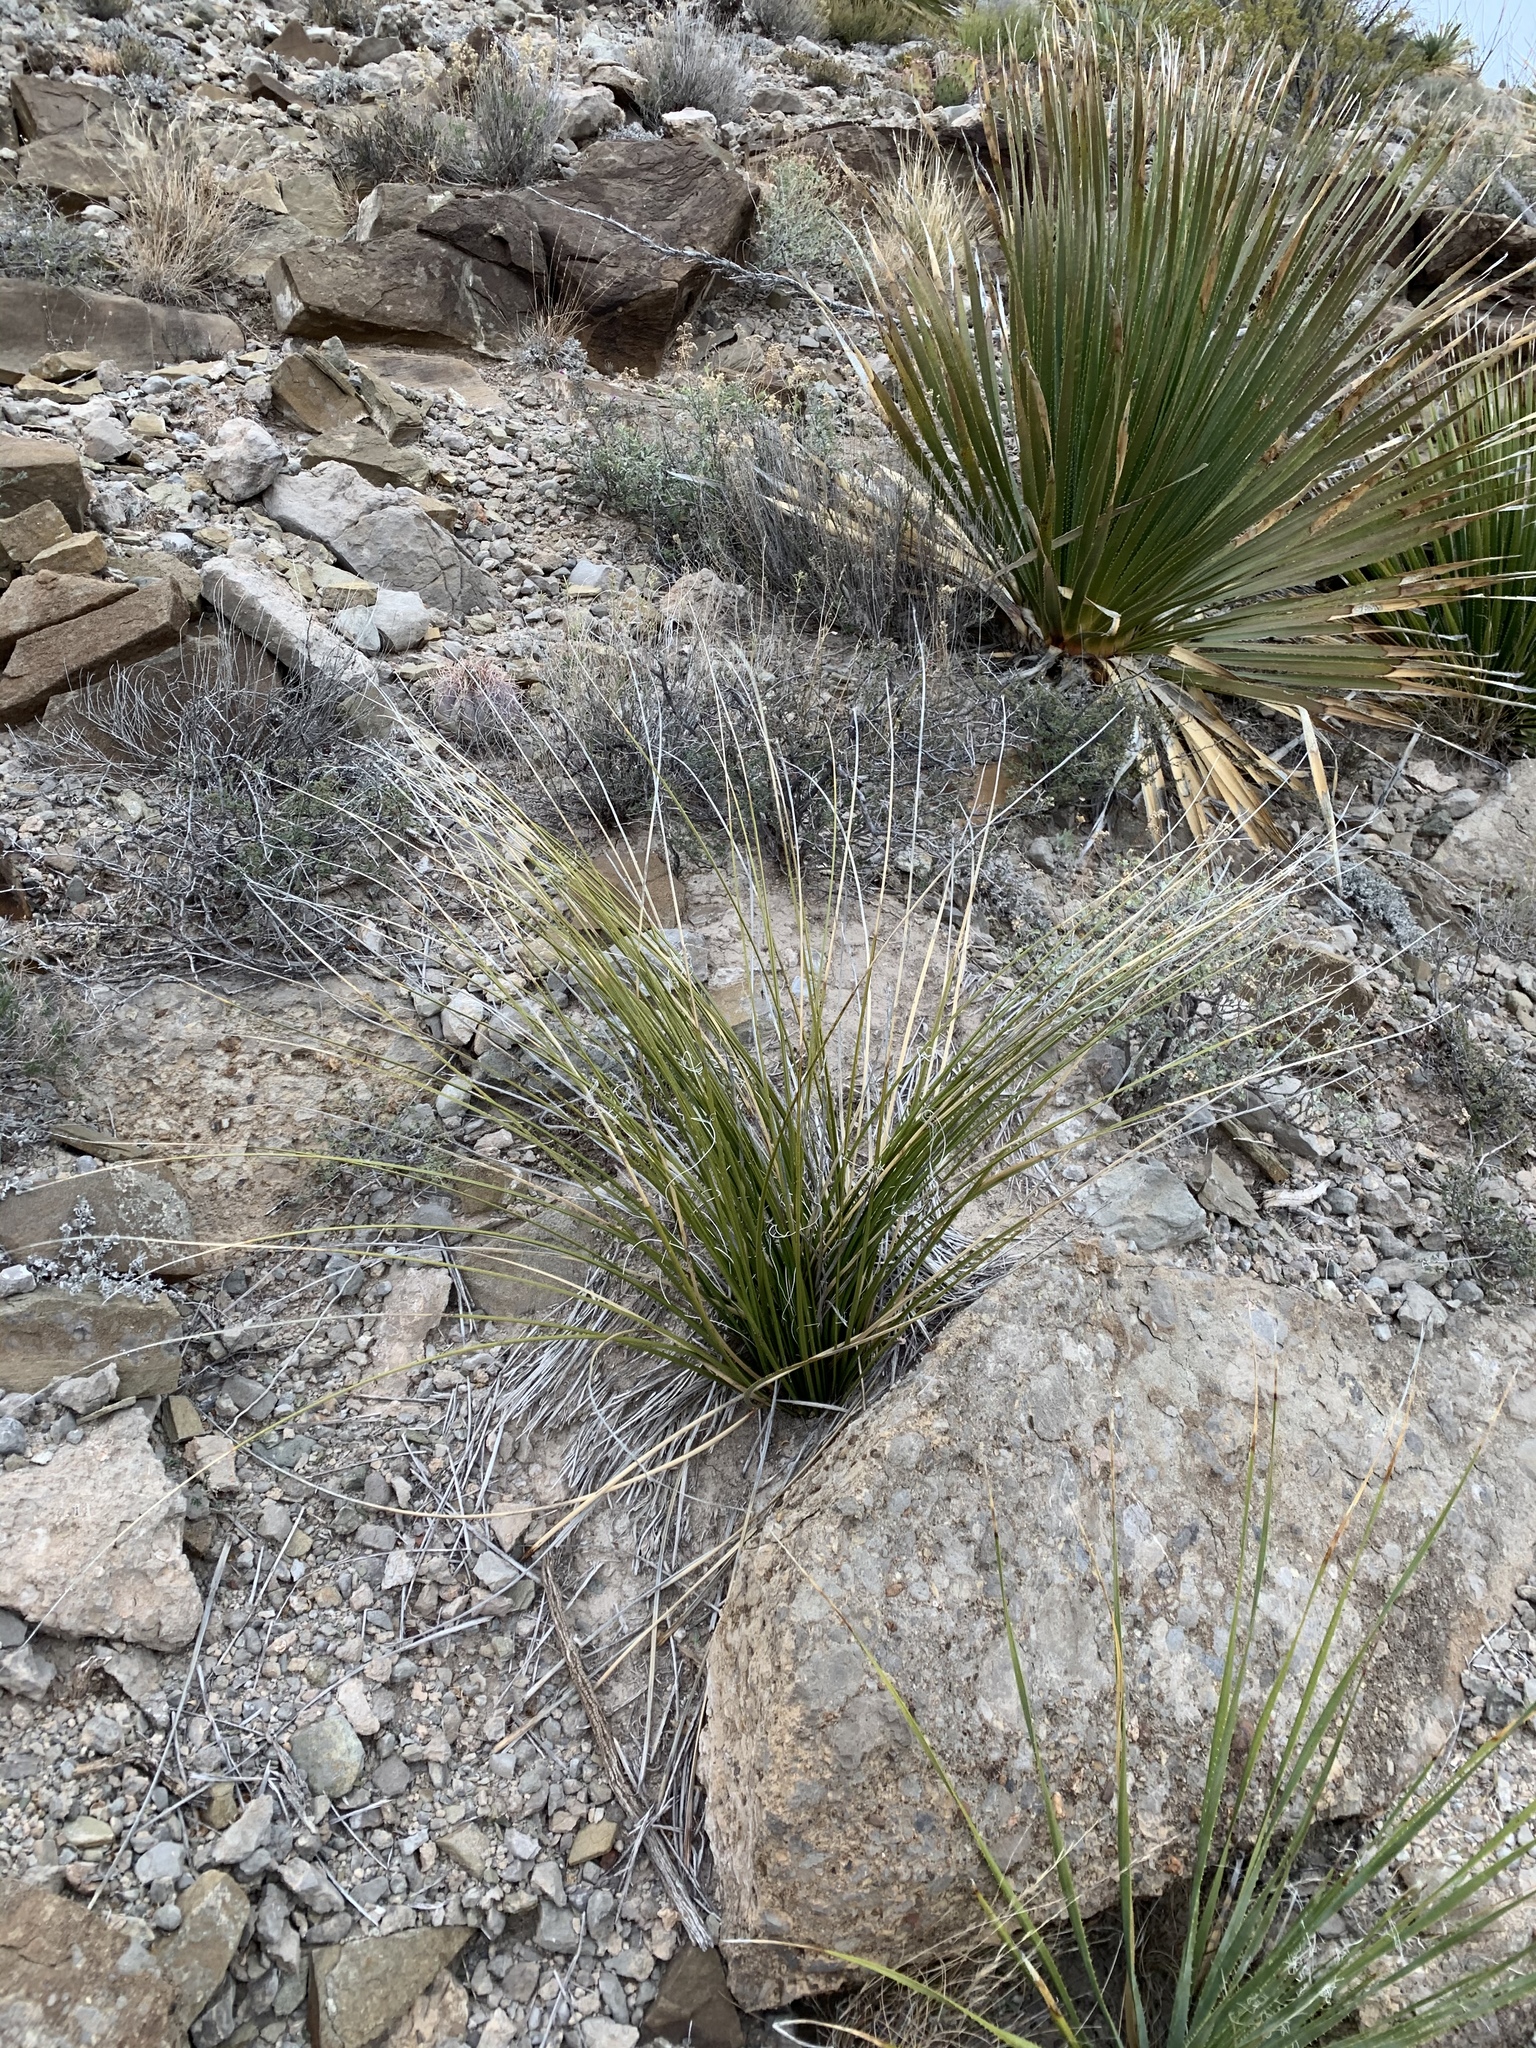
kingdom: Plantae
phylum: Tracheophyta
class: Liliopsida
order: Asparagales
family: Asparagaceae
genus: Nolina
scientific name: Nolina texana
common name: Texas sacahuiste
